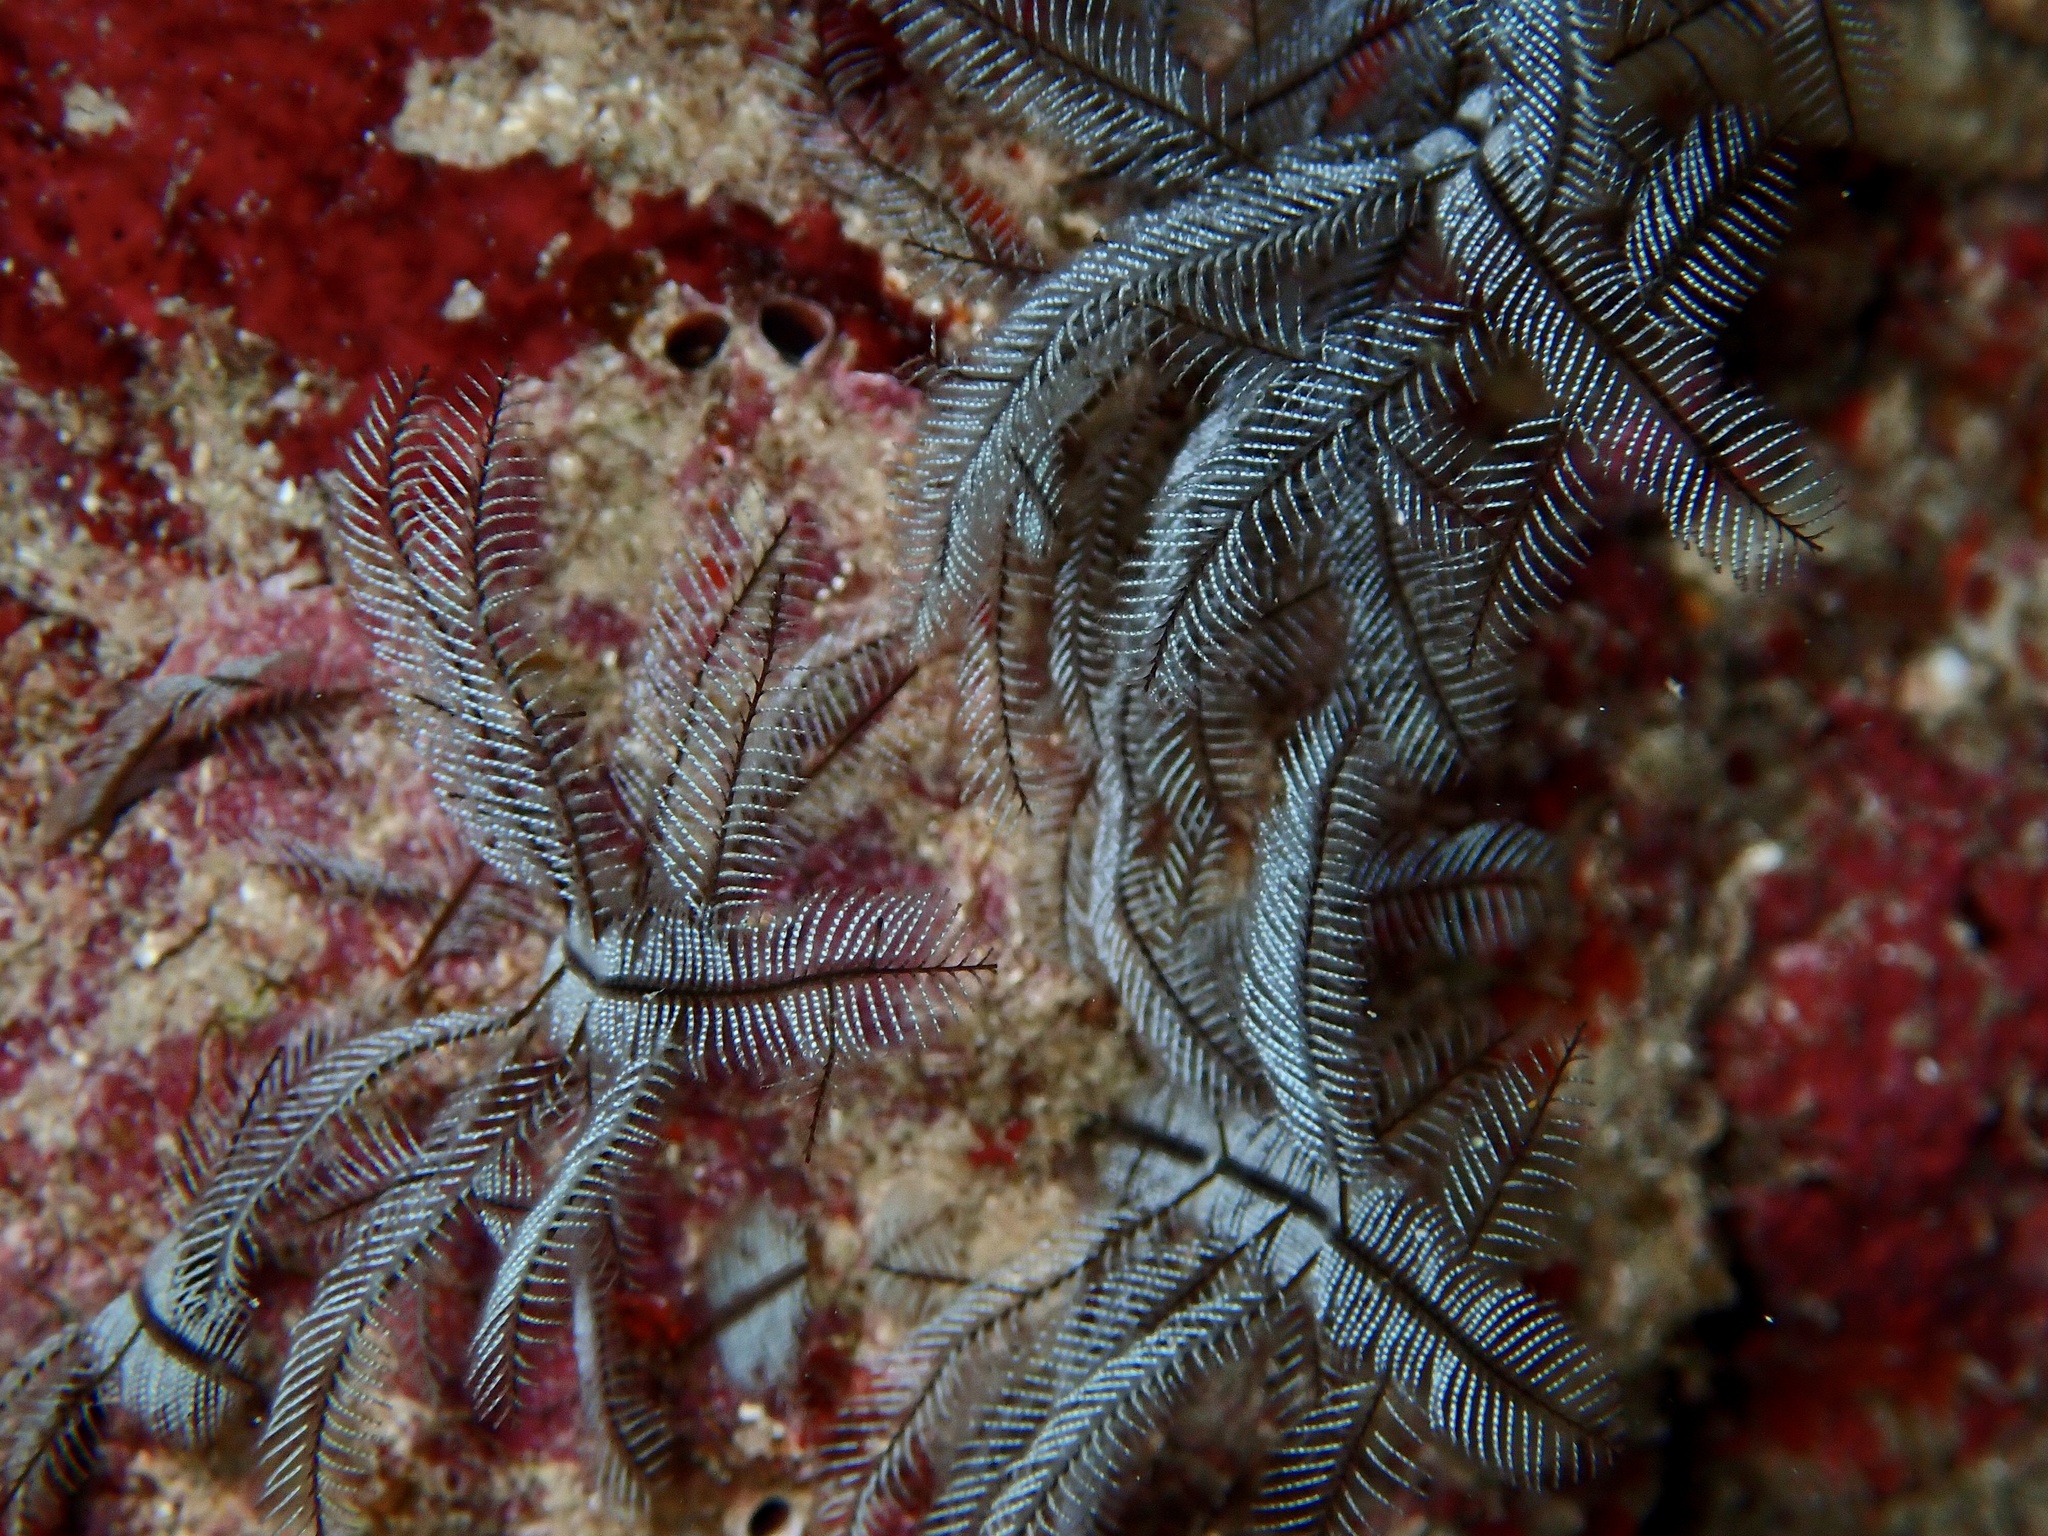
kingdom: Animalia
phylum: Cnidaria
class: Hydrozoa
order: Leptothecata
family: Aglaopheniidae
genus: Macrorhynchia
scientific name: Macrorhynchia philippina
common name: Stinging hydroid
